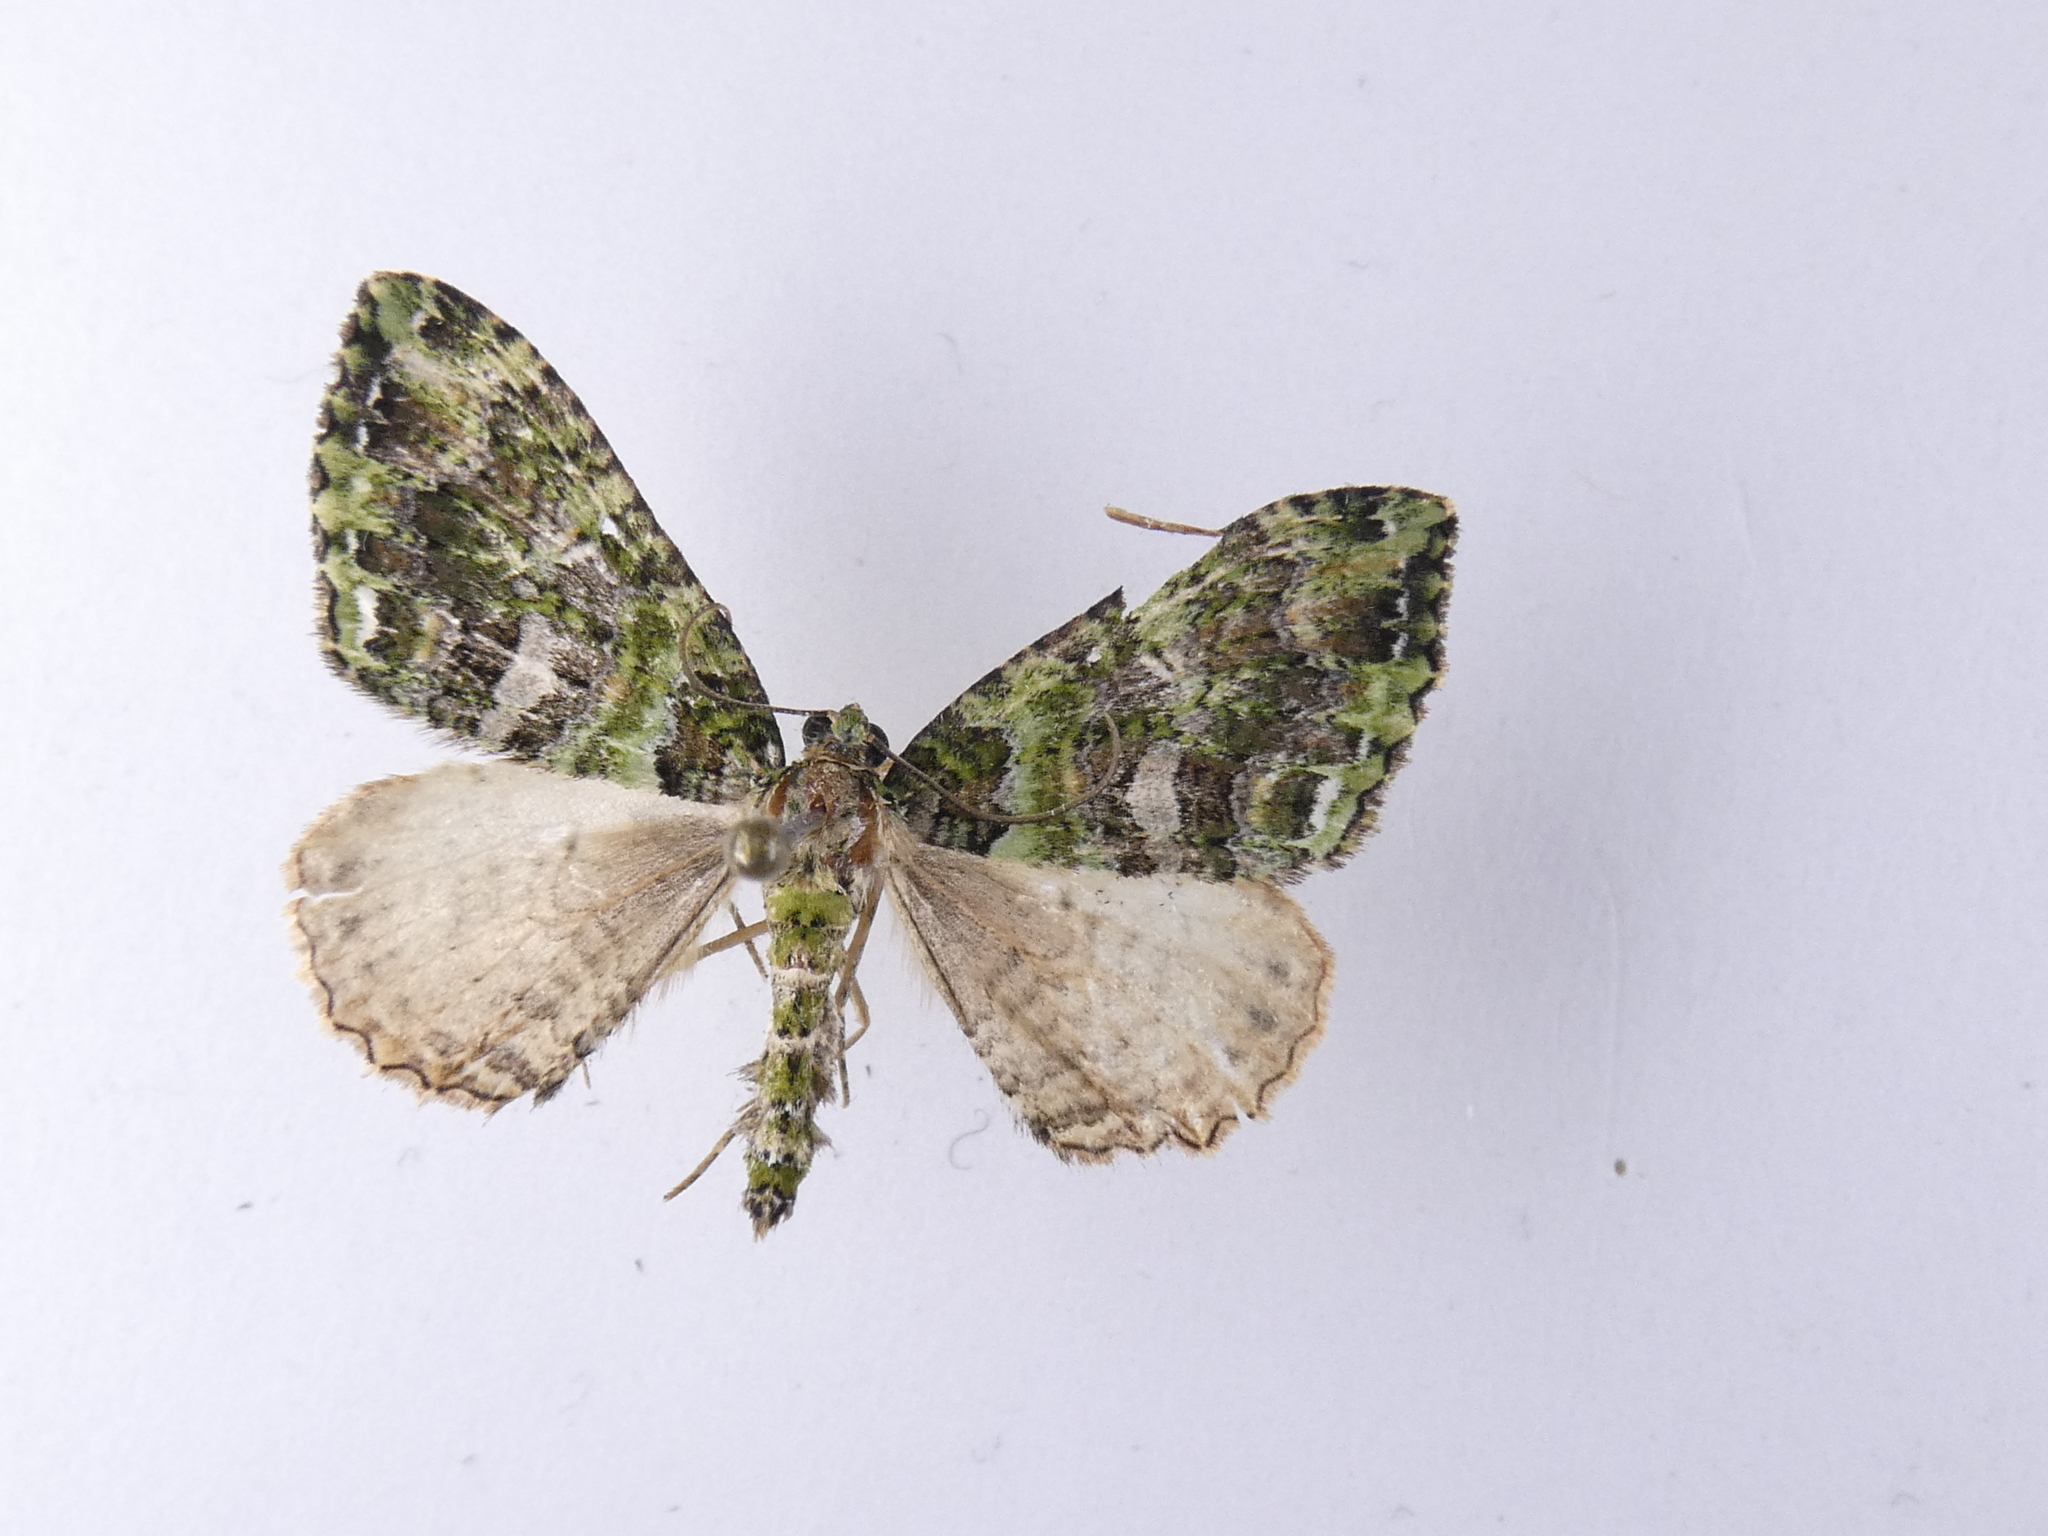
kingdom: Animalia
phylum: Arthropoda
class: Insecta
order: Lepidoptera
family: Geometridae
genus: Austrocidaria
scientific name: Austrocidaria similata
